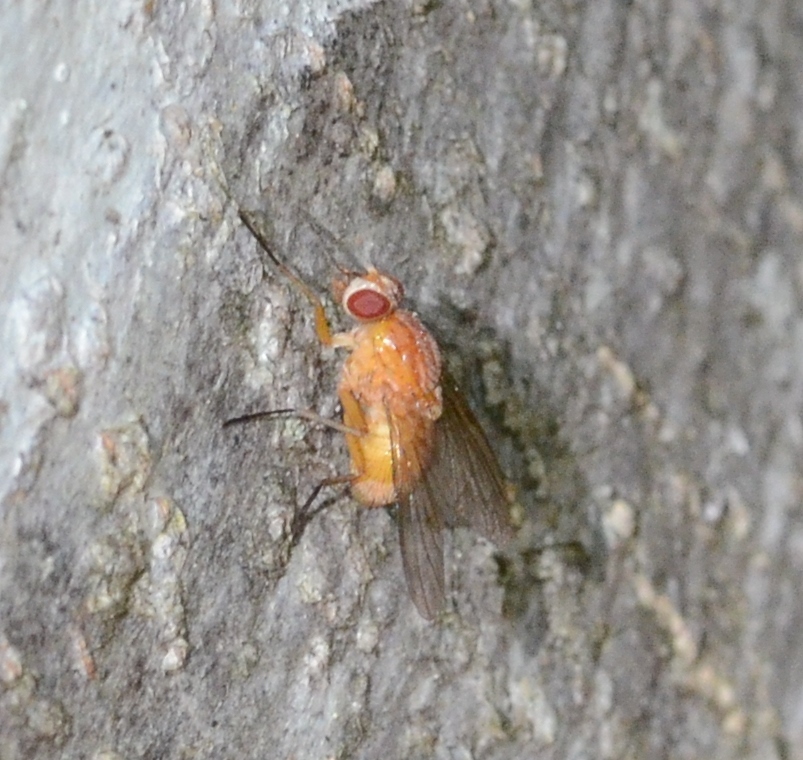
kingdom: Animalia
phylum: Arthropoda
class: Insecta
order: Diptera
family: Muscidae
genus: Phaonia
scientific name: Phaonia pallida
